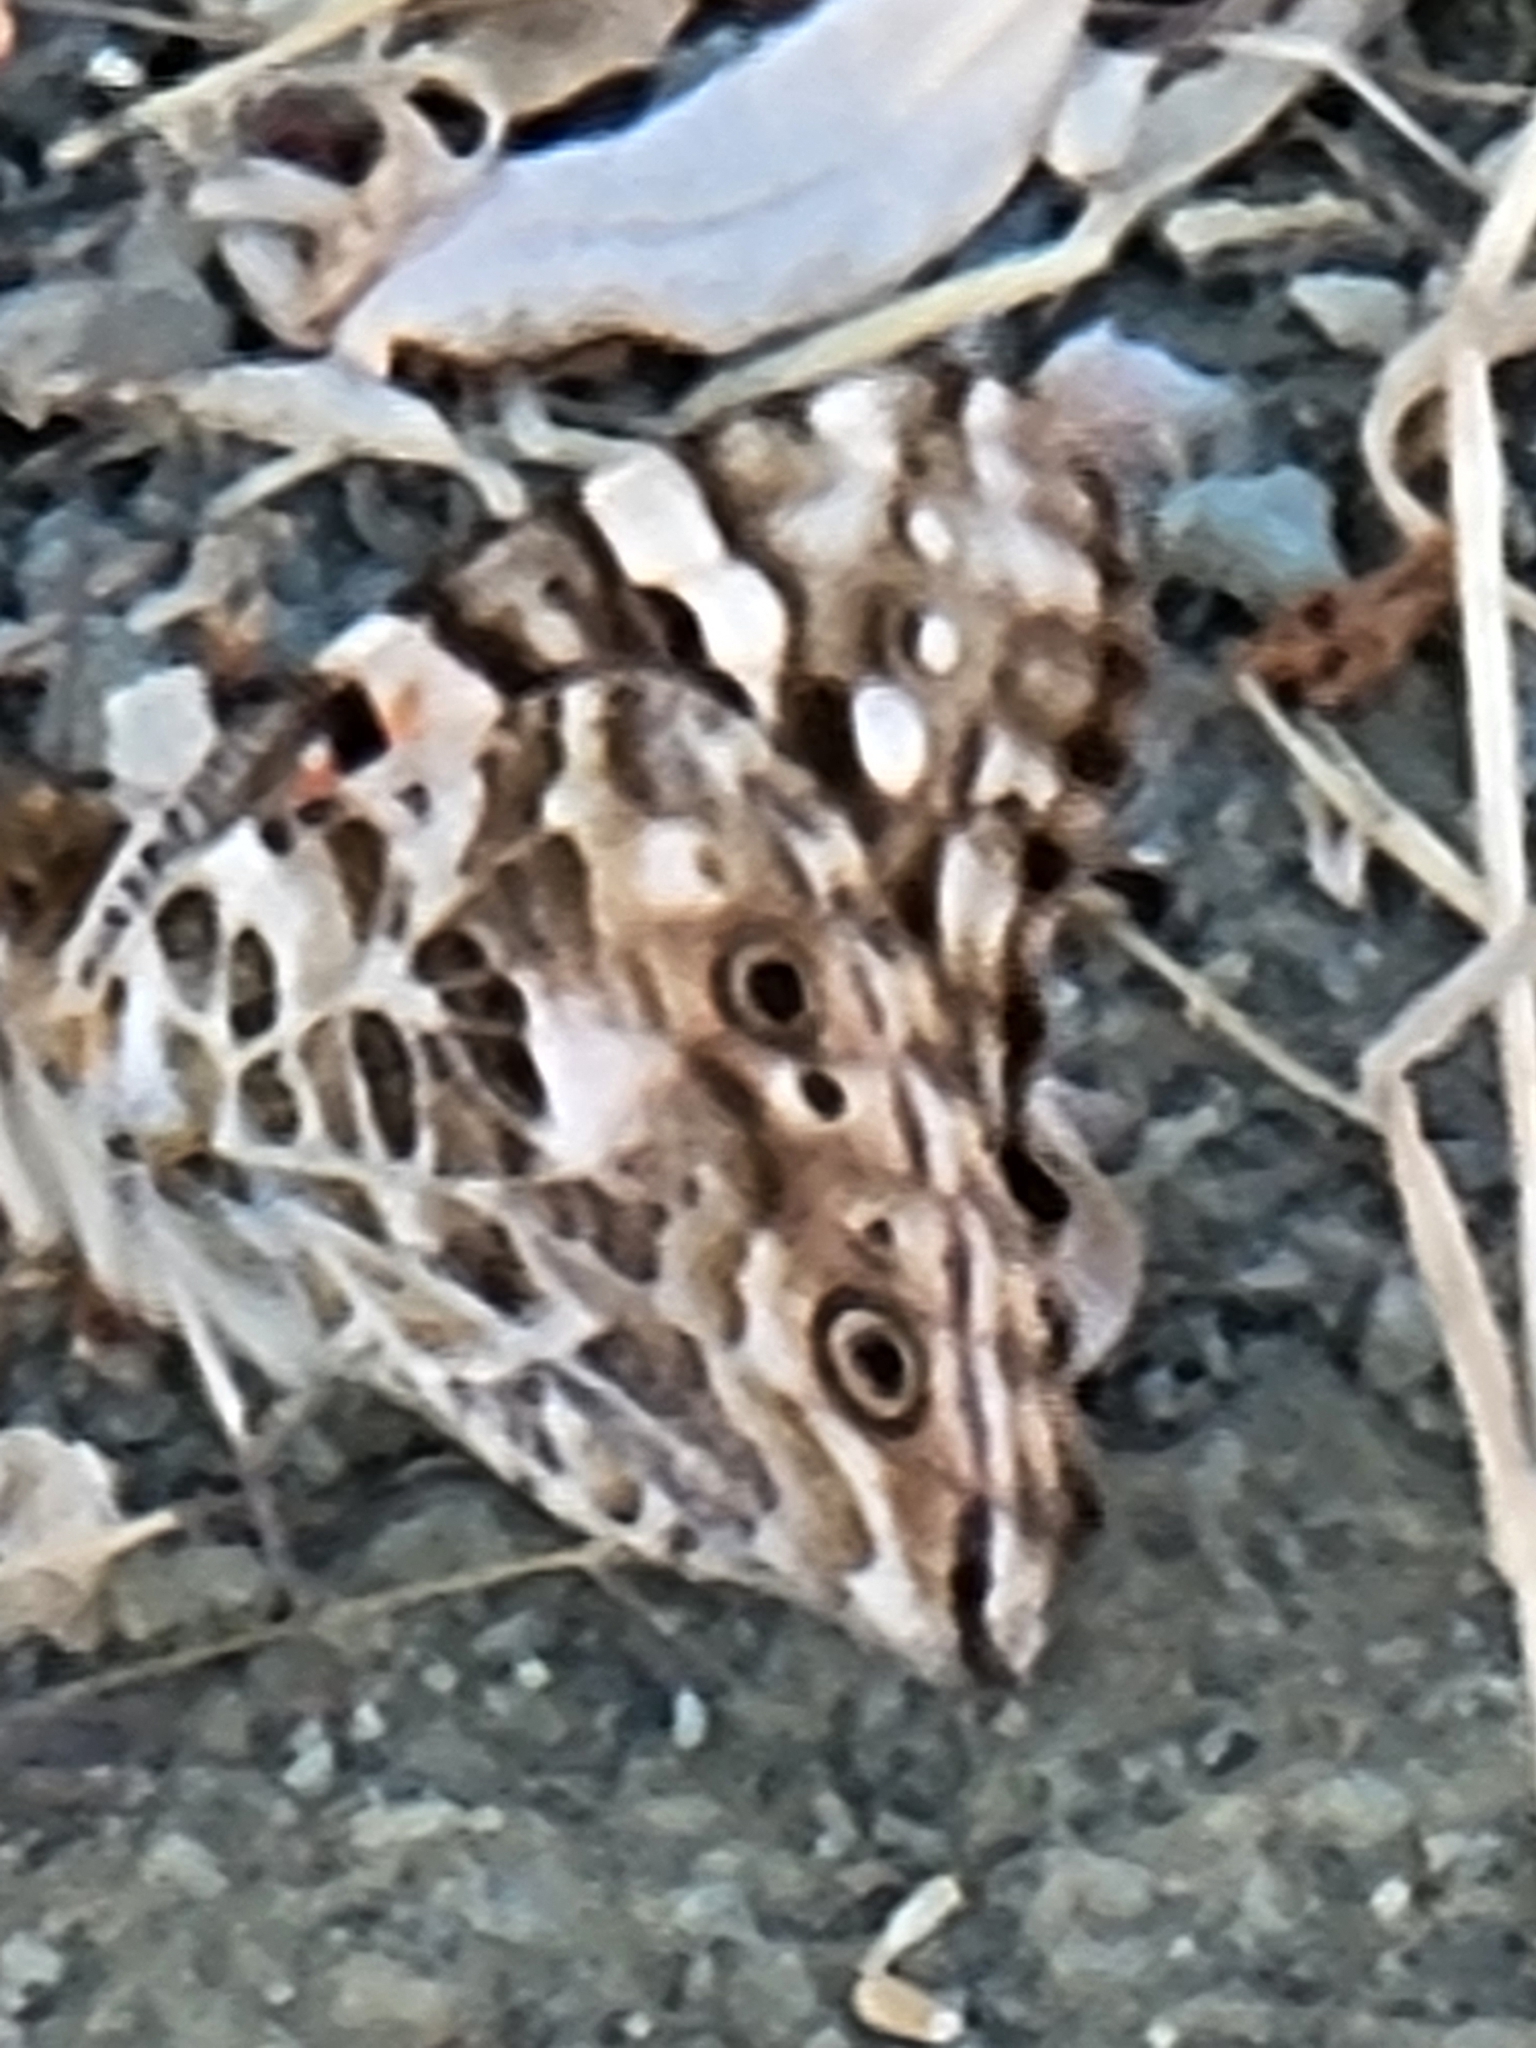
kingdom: Animalia
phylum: Arthropoda
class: Insecta
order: Lepidoptera
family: Nymphalidae
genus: Vanessa
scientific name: Vanessa cardui
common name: Painted lady
